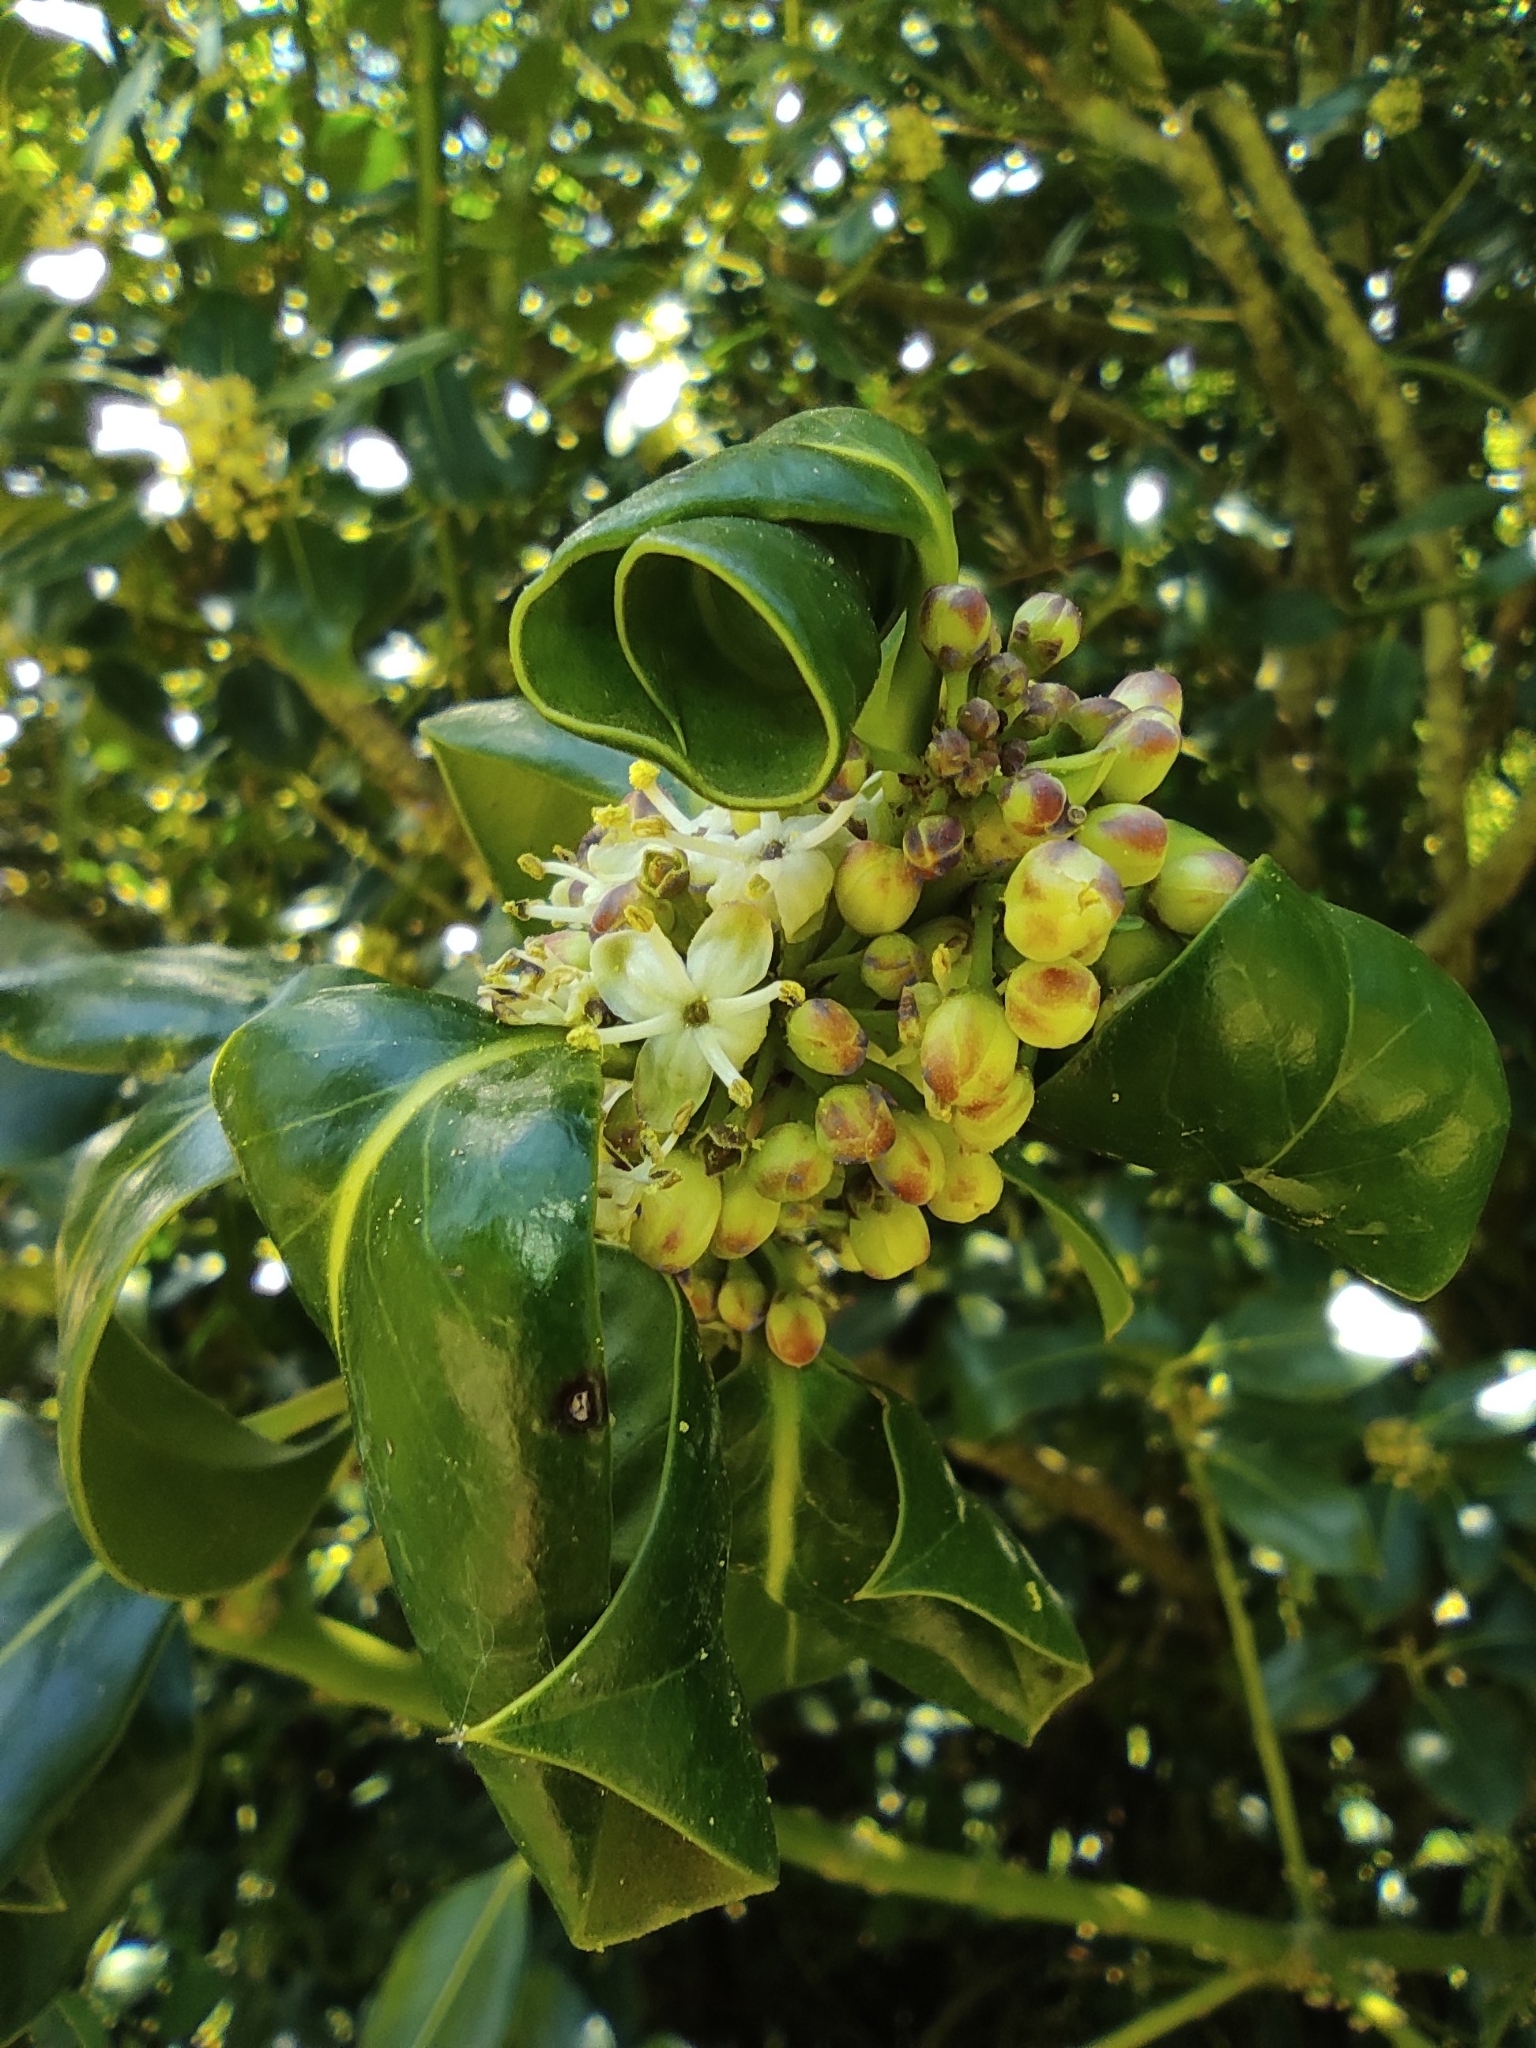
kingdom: Plantae
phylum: Tracheophyta
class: Magnoliopsida
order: Aquifoliales
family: Aquifoliaceae
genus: Ilex
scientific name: Ilex aquifolium
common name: English holly
